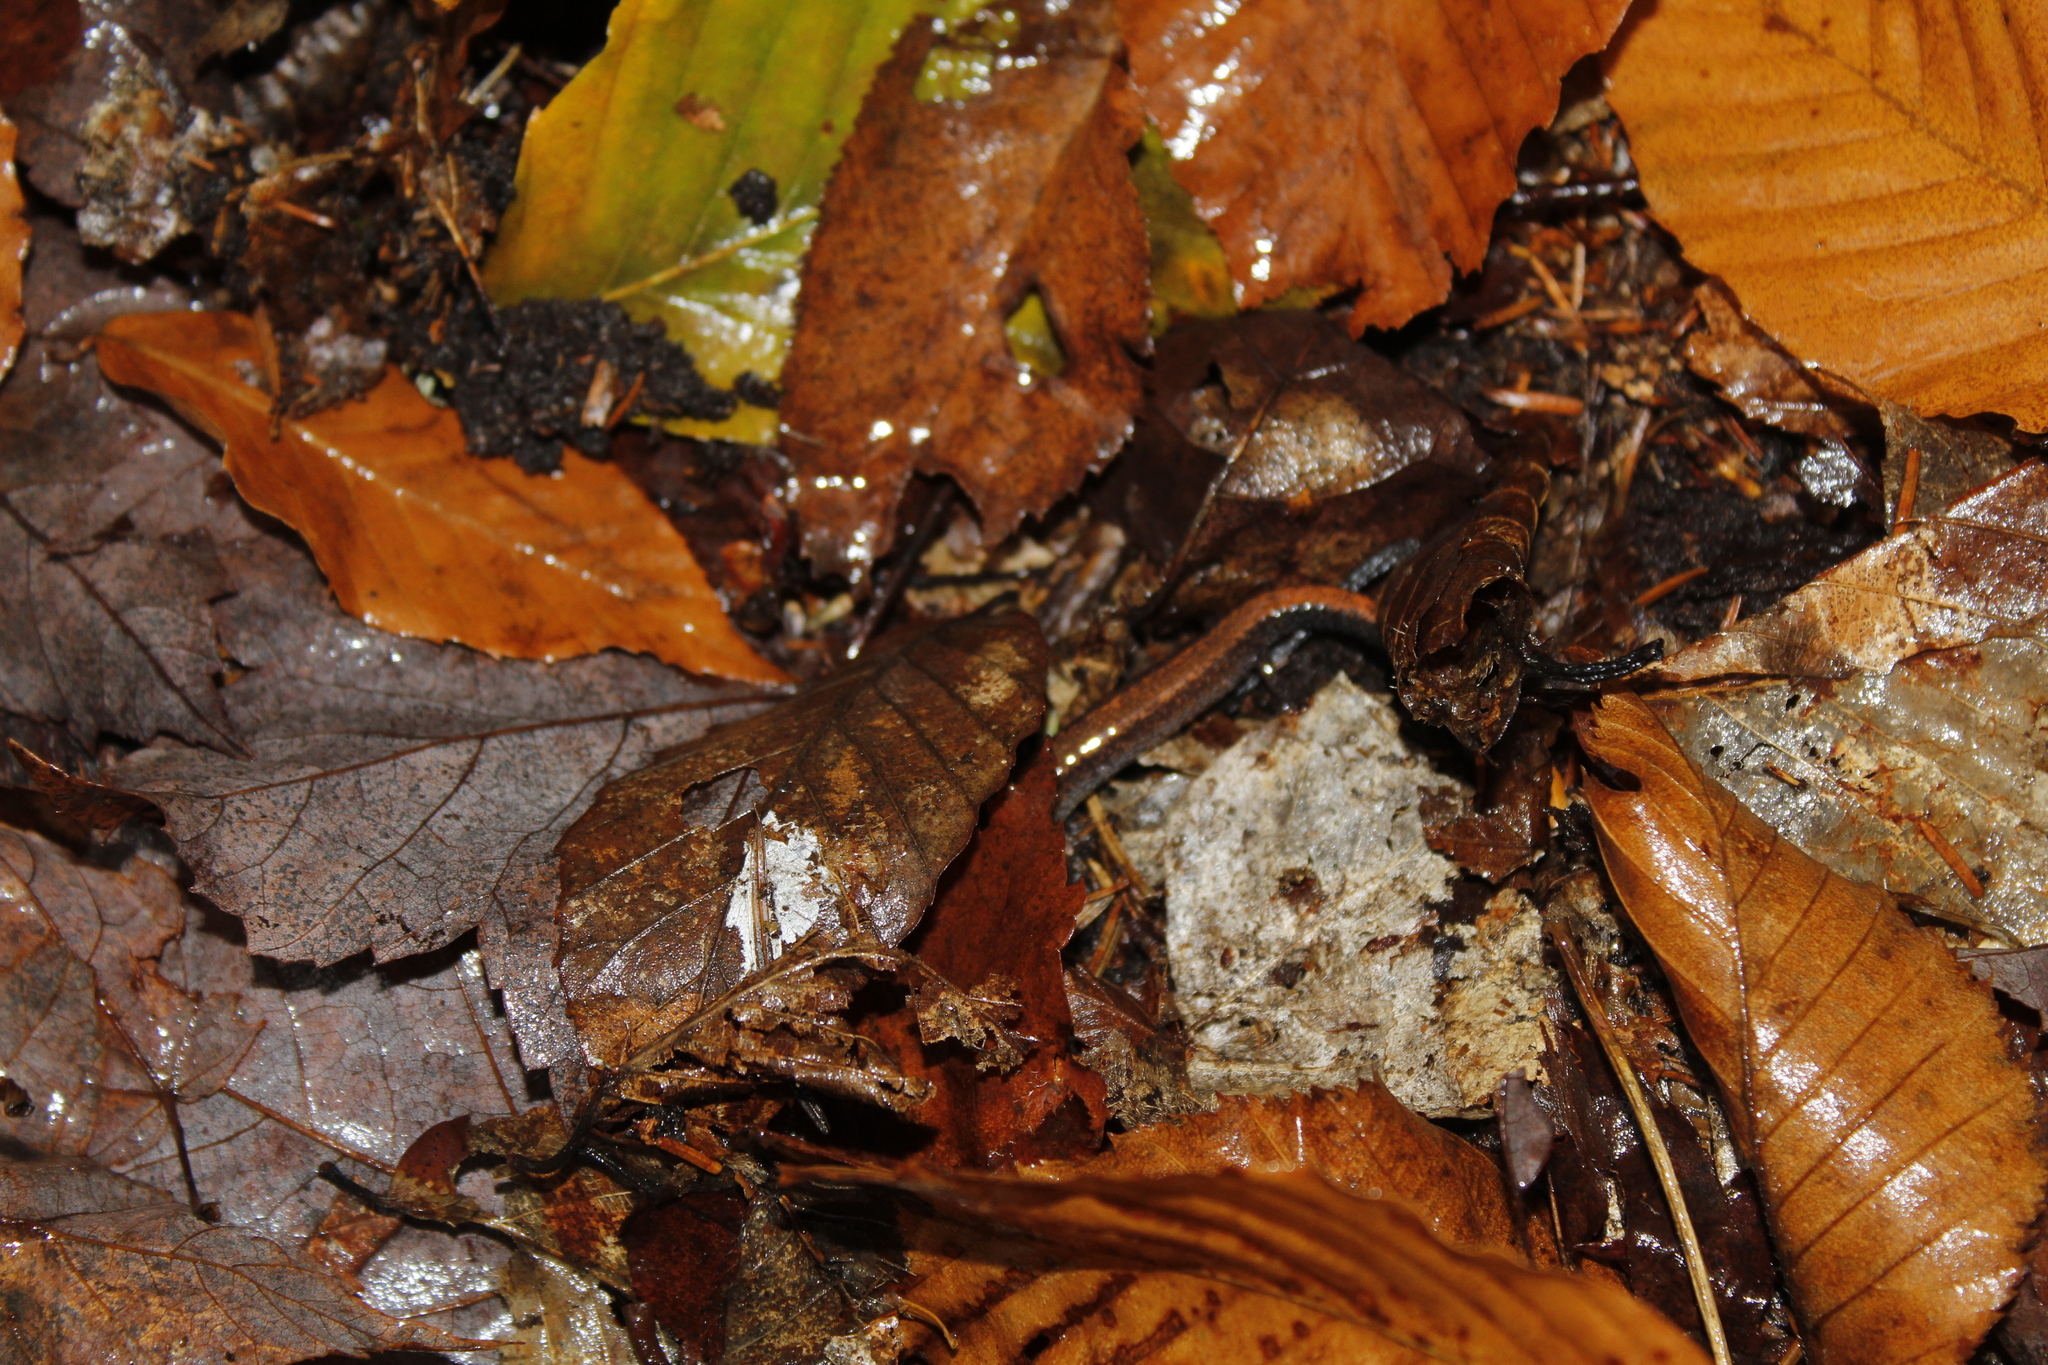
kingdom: Animalia
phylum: Chordata
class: Amphibia
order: Caudata
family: Plethodontidae
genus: Plethodon
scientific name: Plethodon cinereus
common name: Redback salamander
